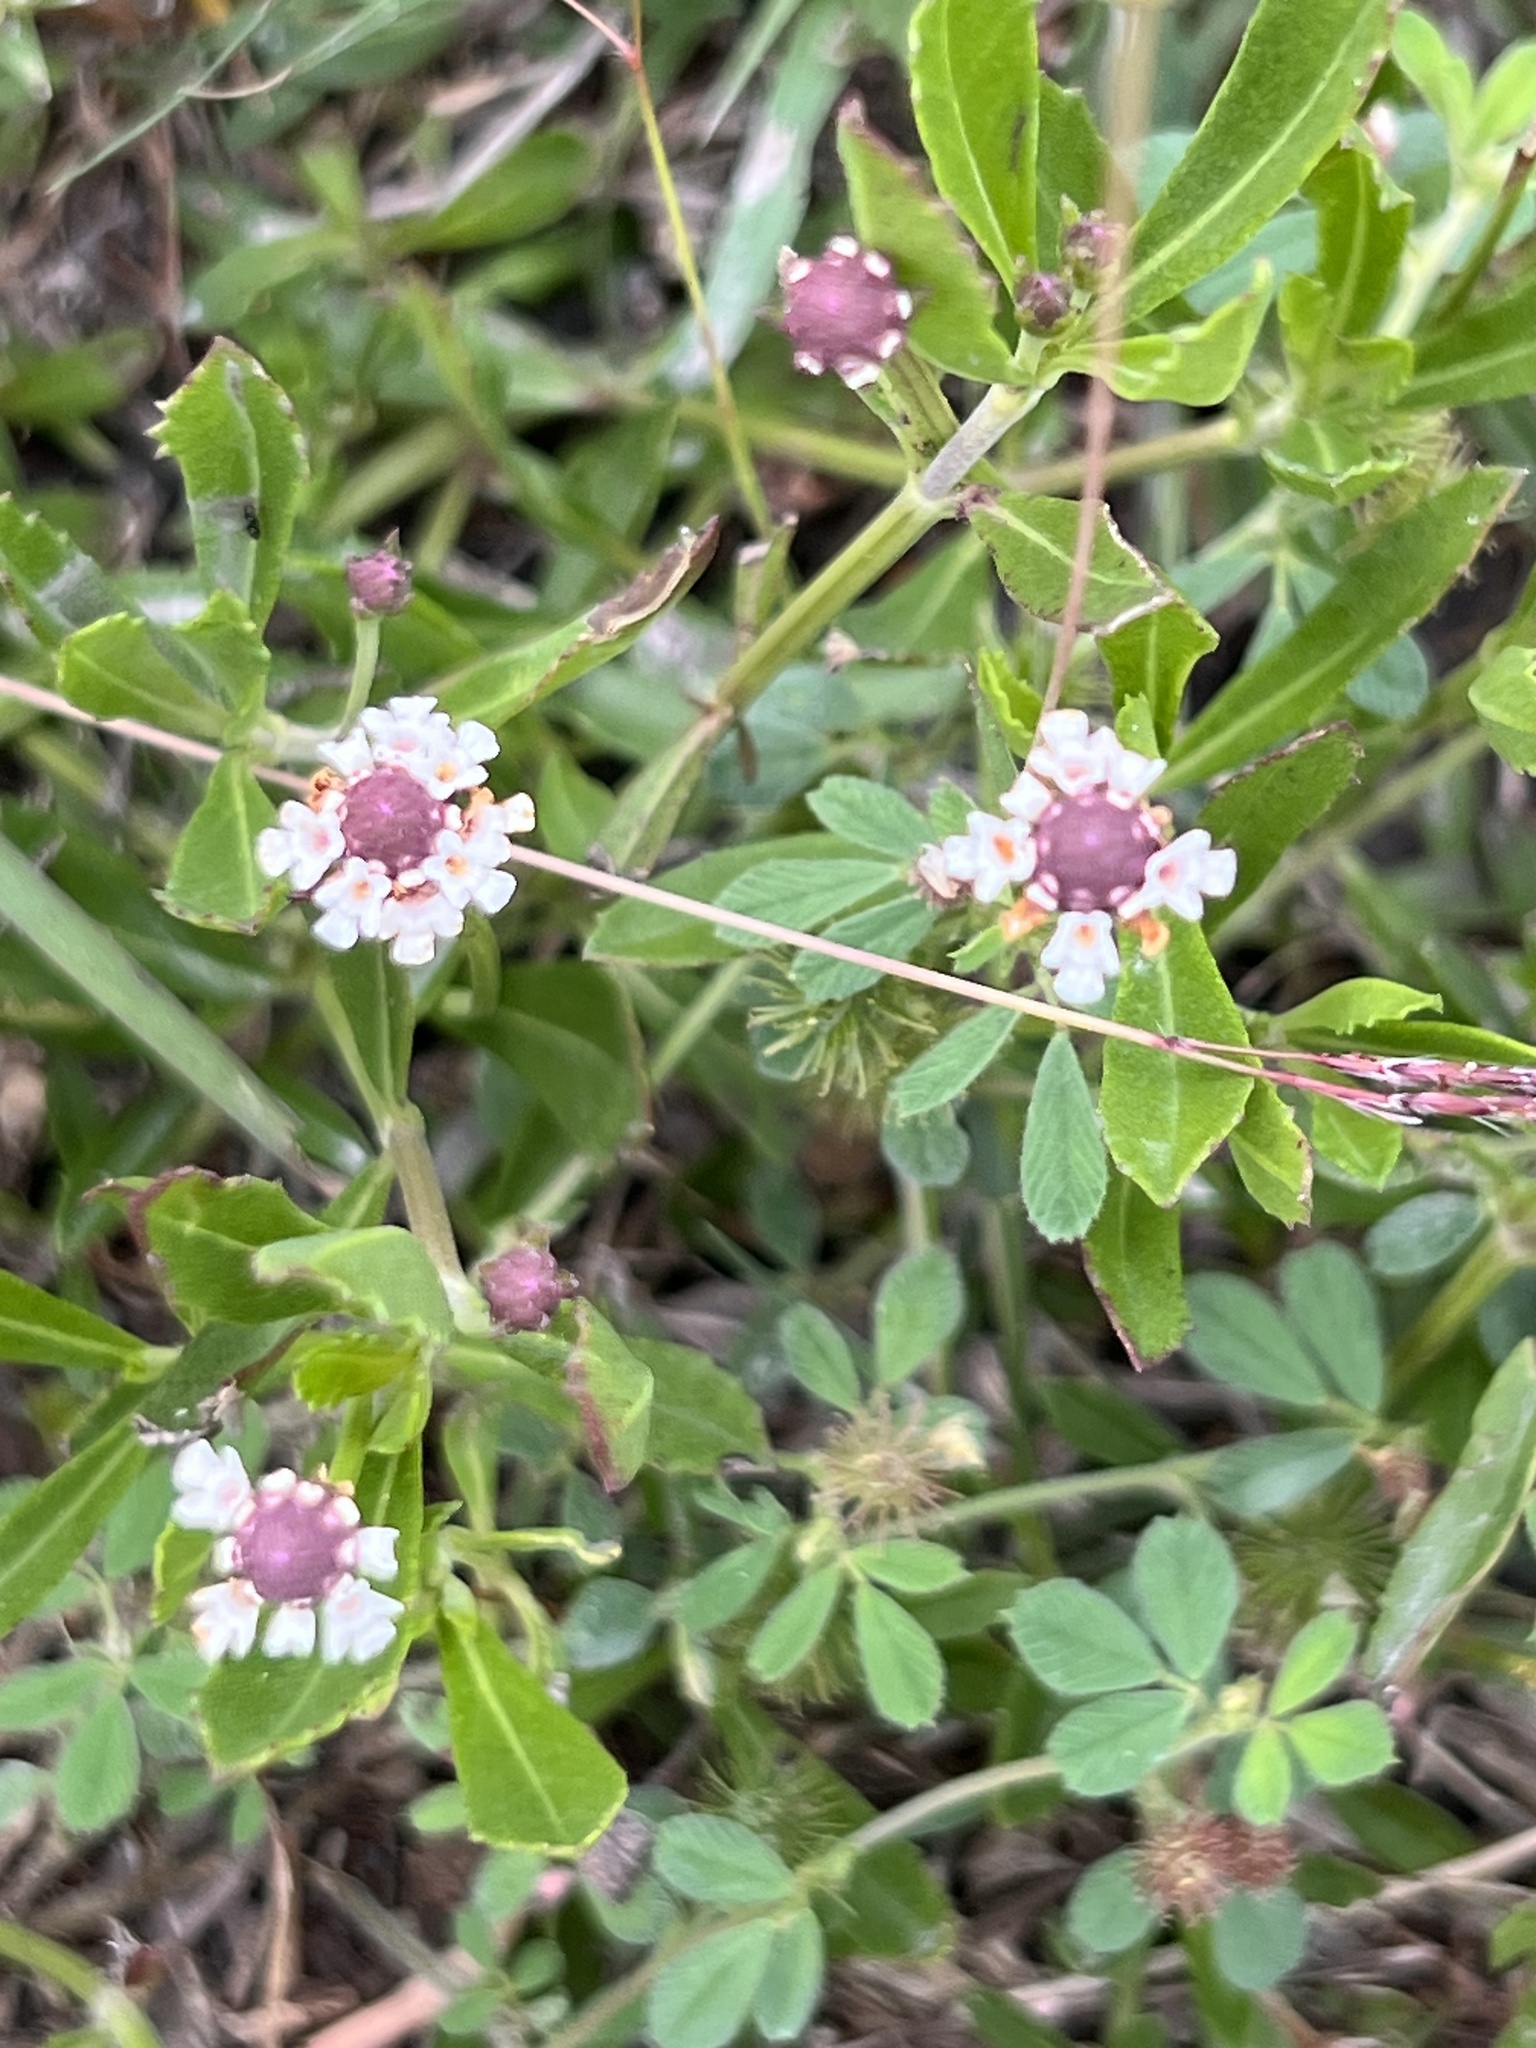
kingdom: Plantae
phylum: Tracheophyta
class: Magnoliopsida
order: Lamiales
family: Verbenaceae
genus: Phyla
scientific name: Phyla nodiflora
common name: Frogfruit
